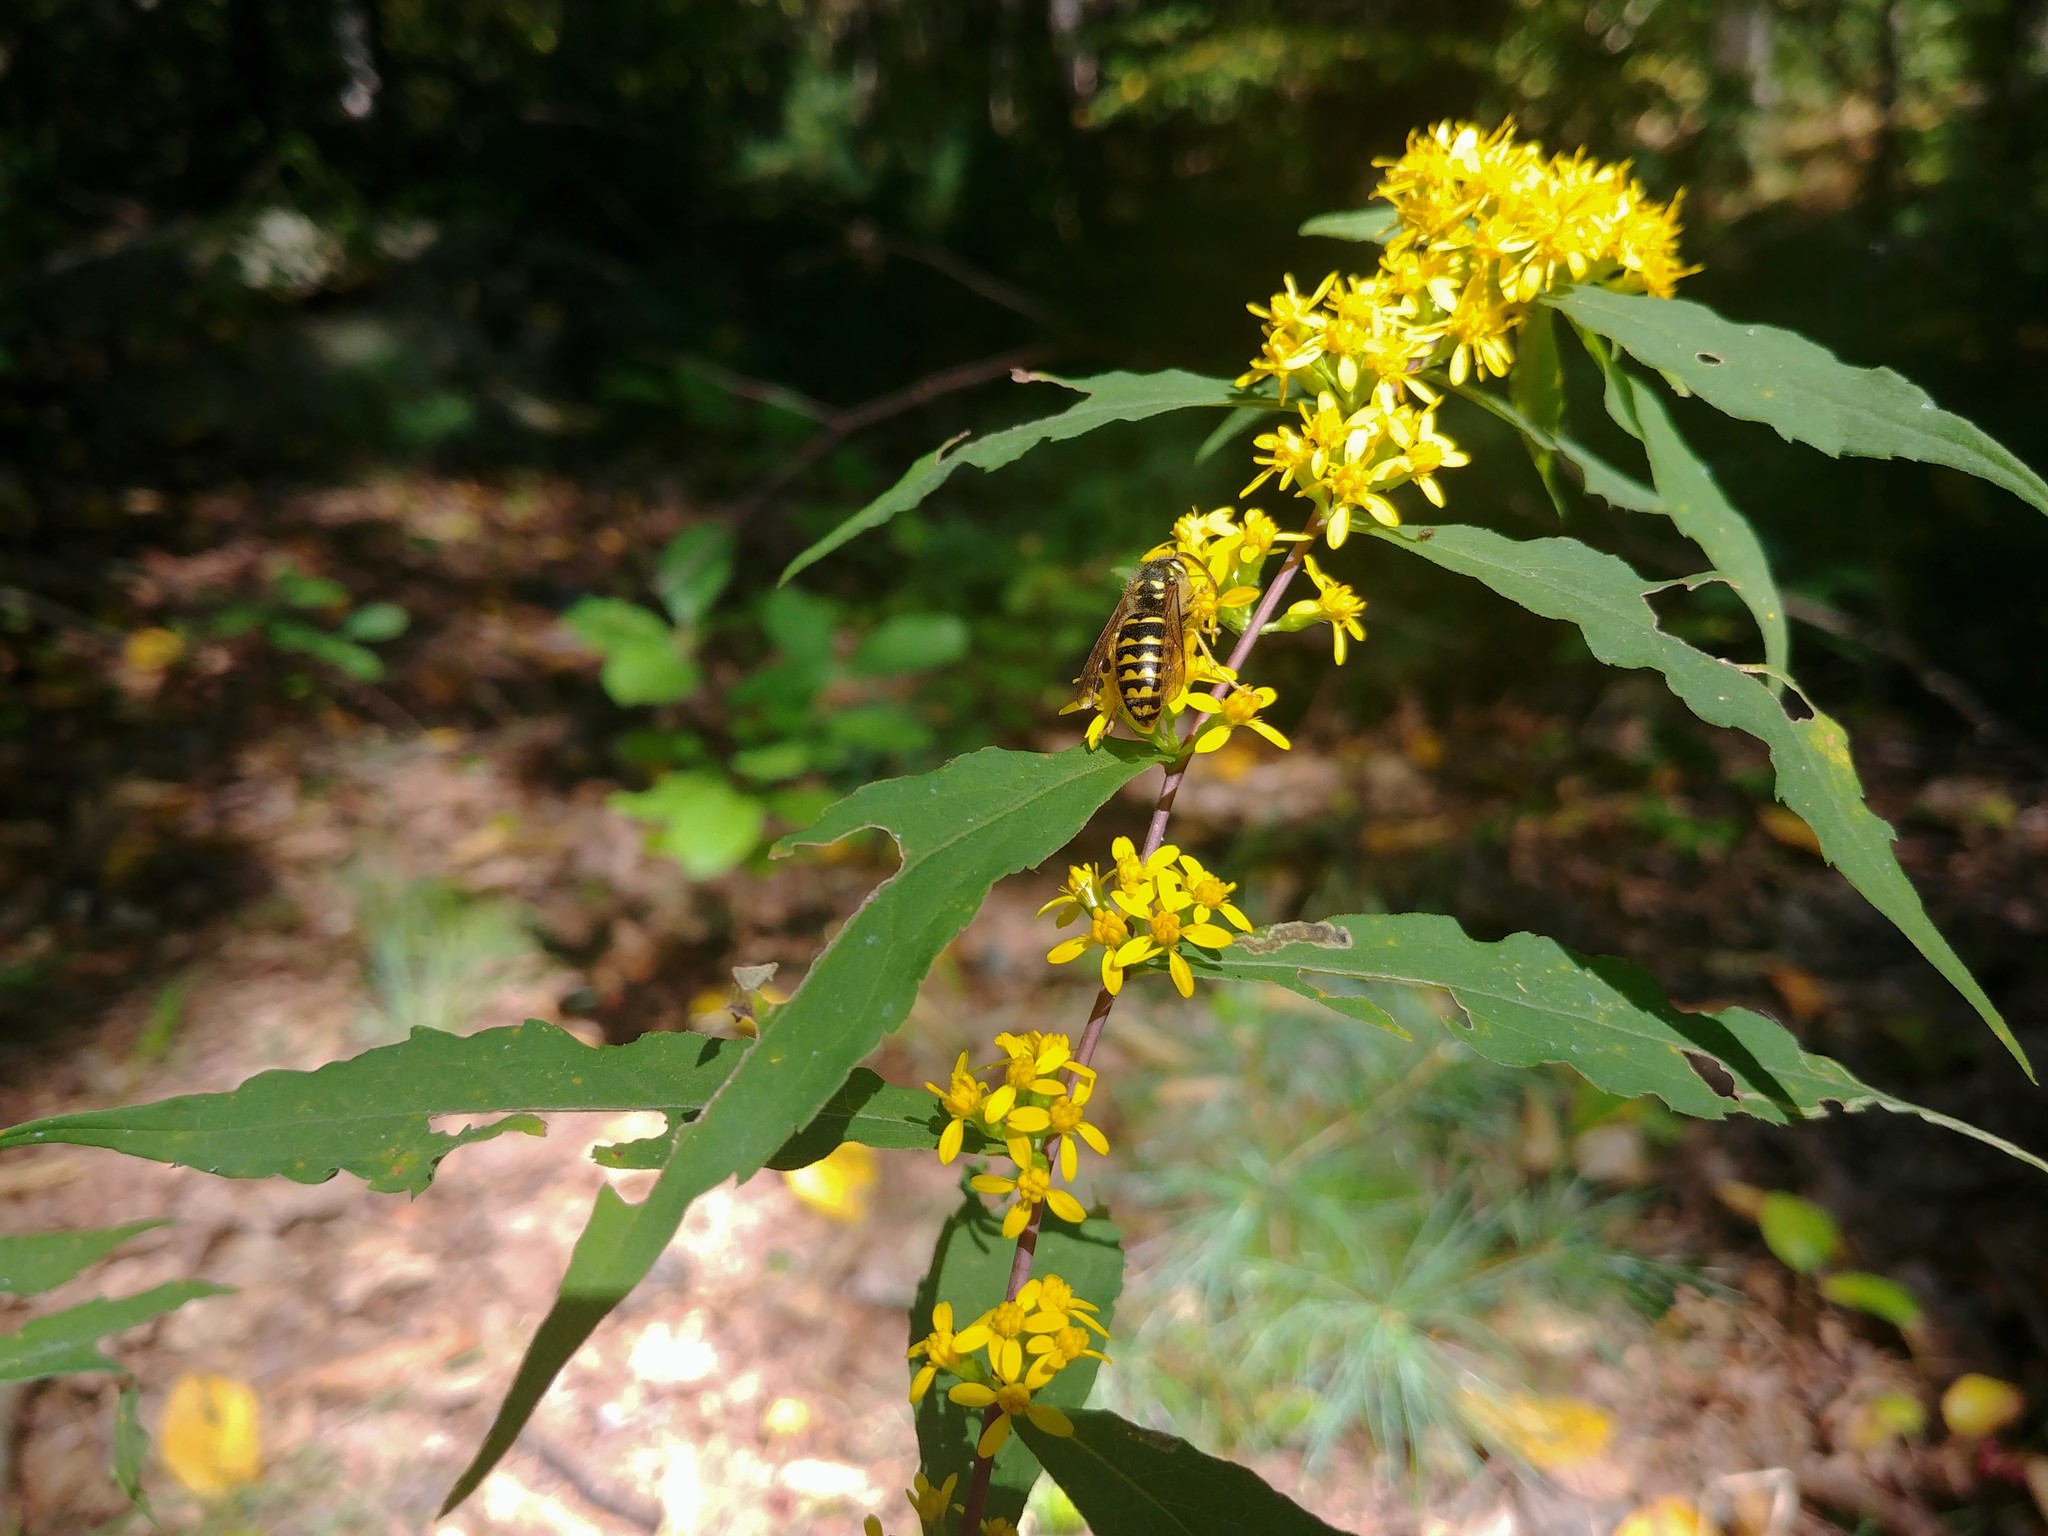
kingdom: Plantae
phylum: Tracheophyta
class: Magnoliopsida
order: Asterales
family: Asteraceae
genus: Solidago
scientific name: Solidago caesia
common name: Woodland goldenrod
